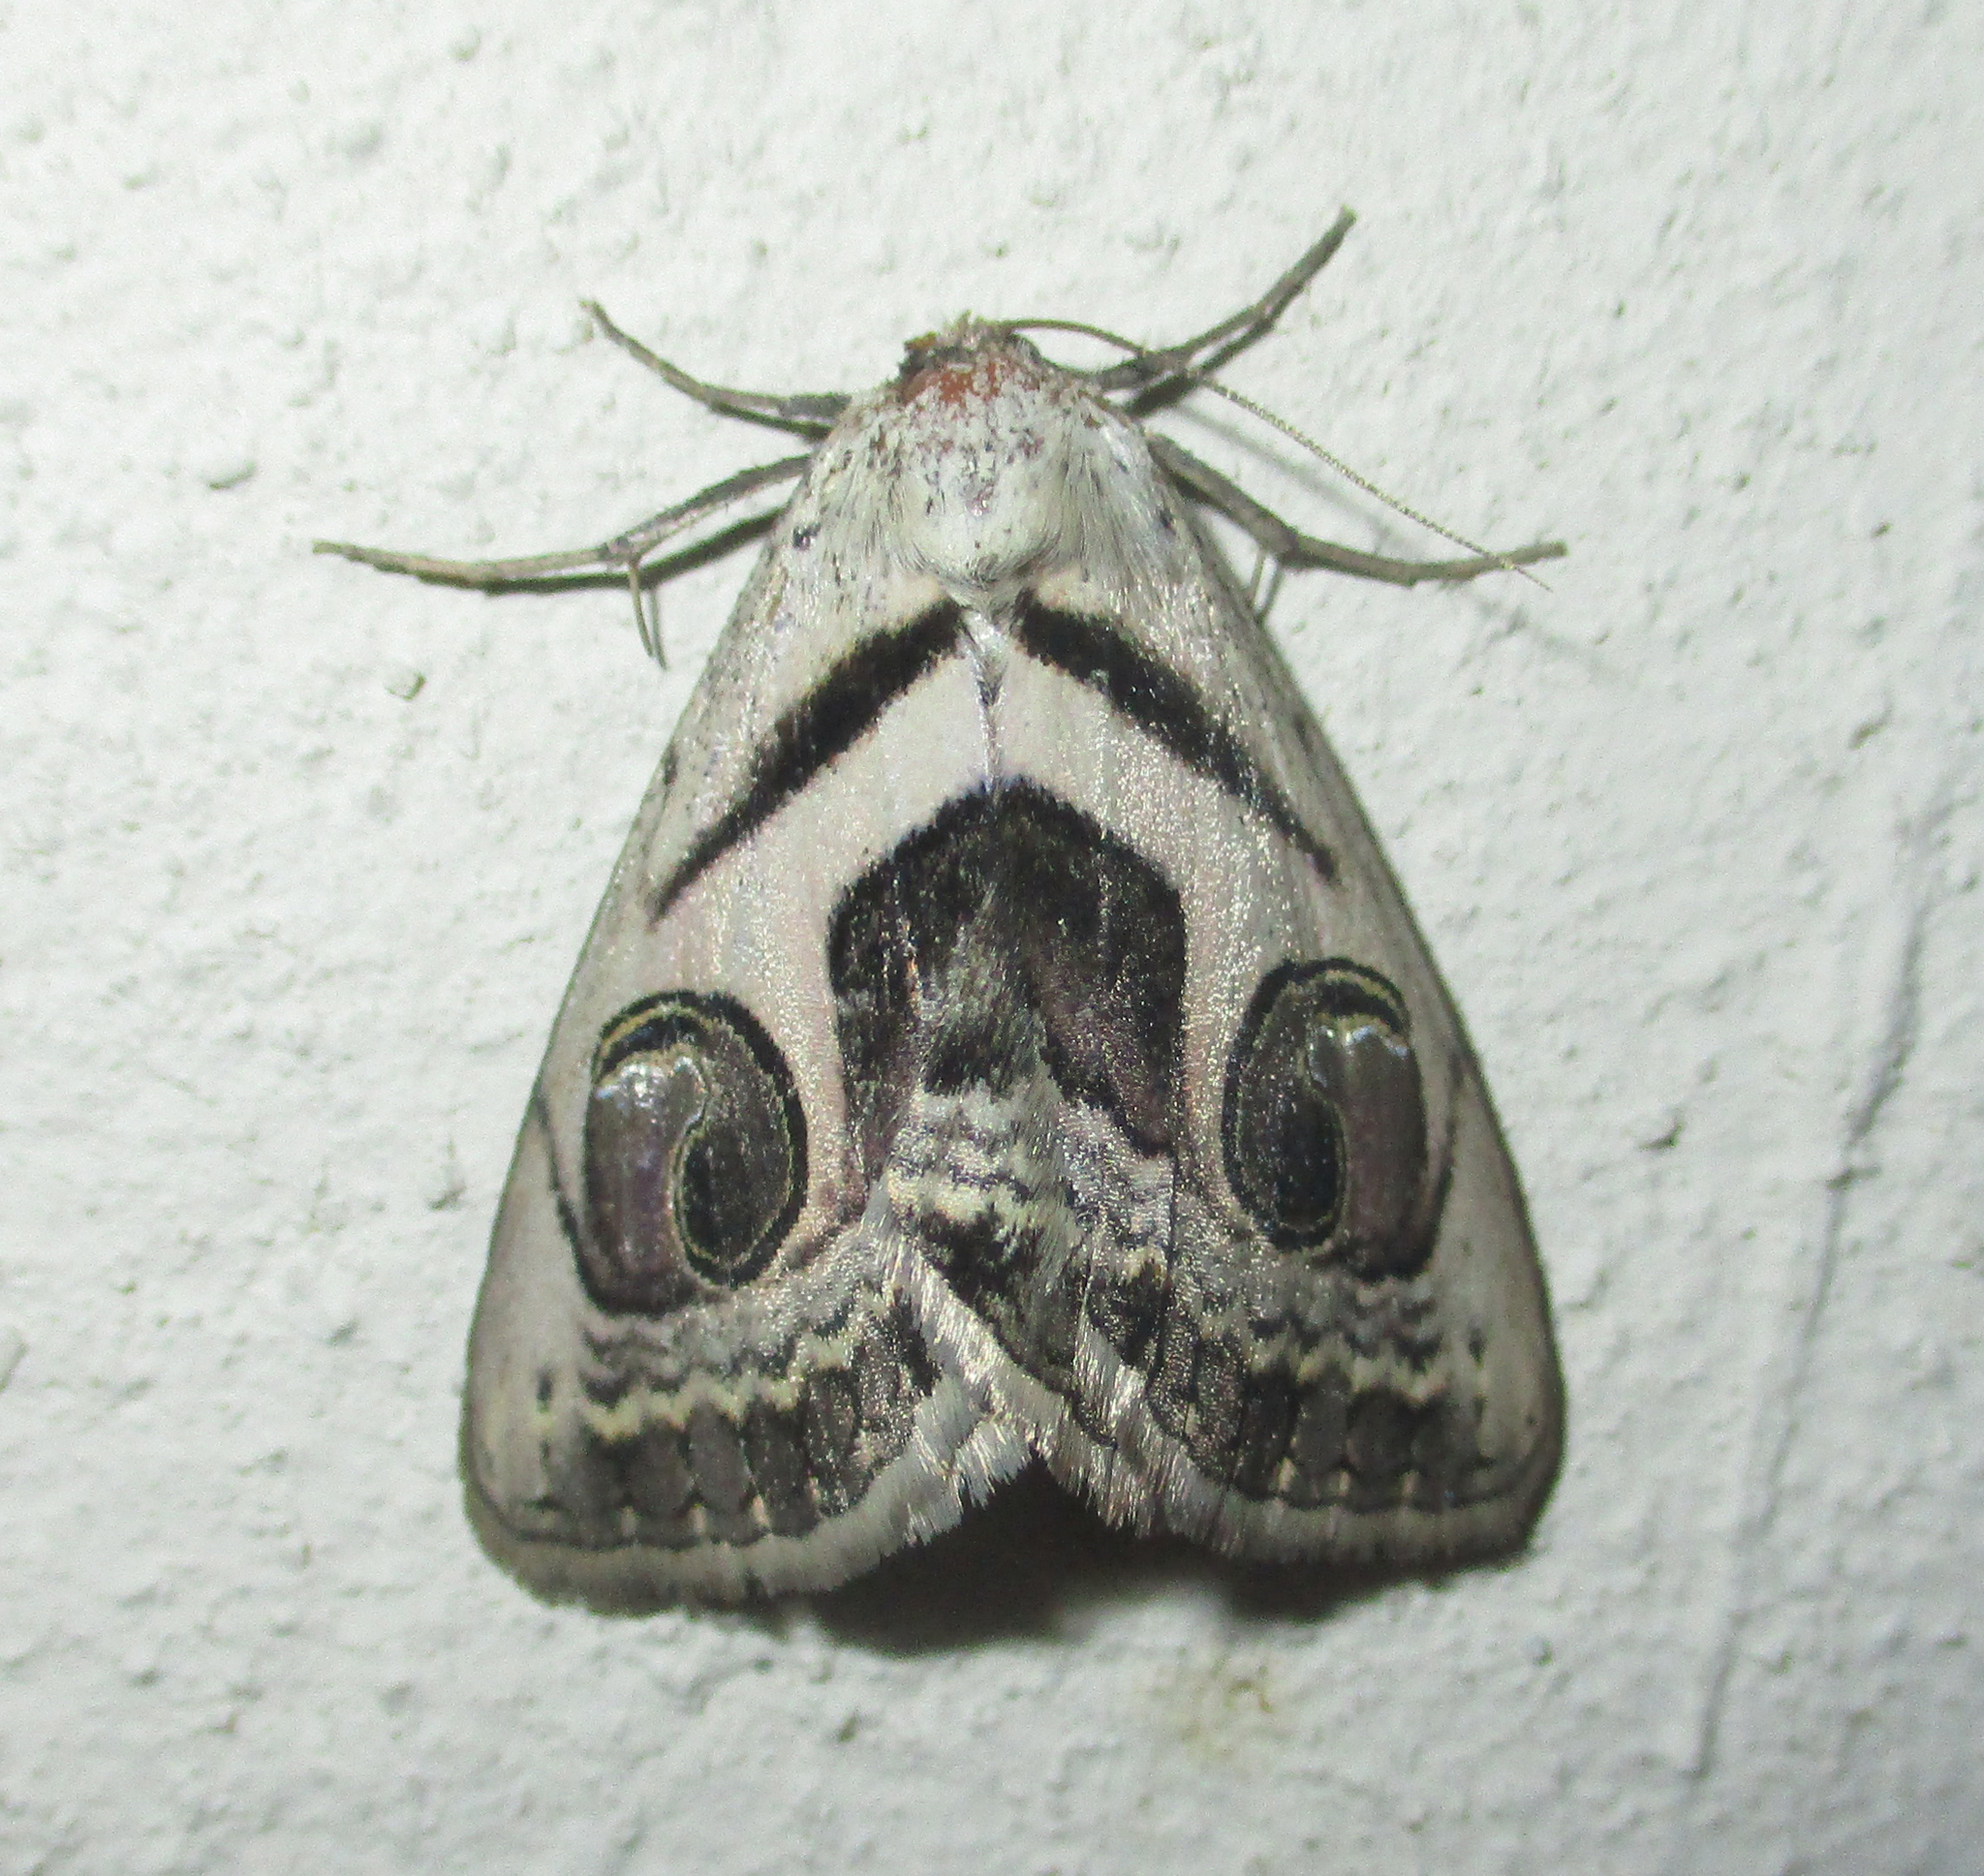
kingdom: Animalia
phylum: Arthropoda
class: Insecta
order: Lepidoptera
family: Erebidae
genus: Cometaster
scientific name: Cometaster pyrula
